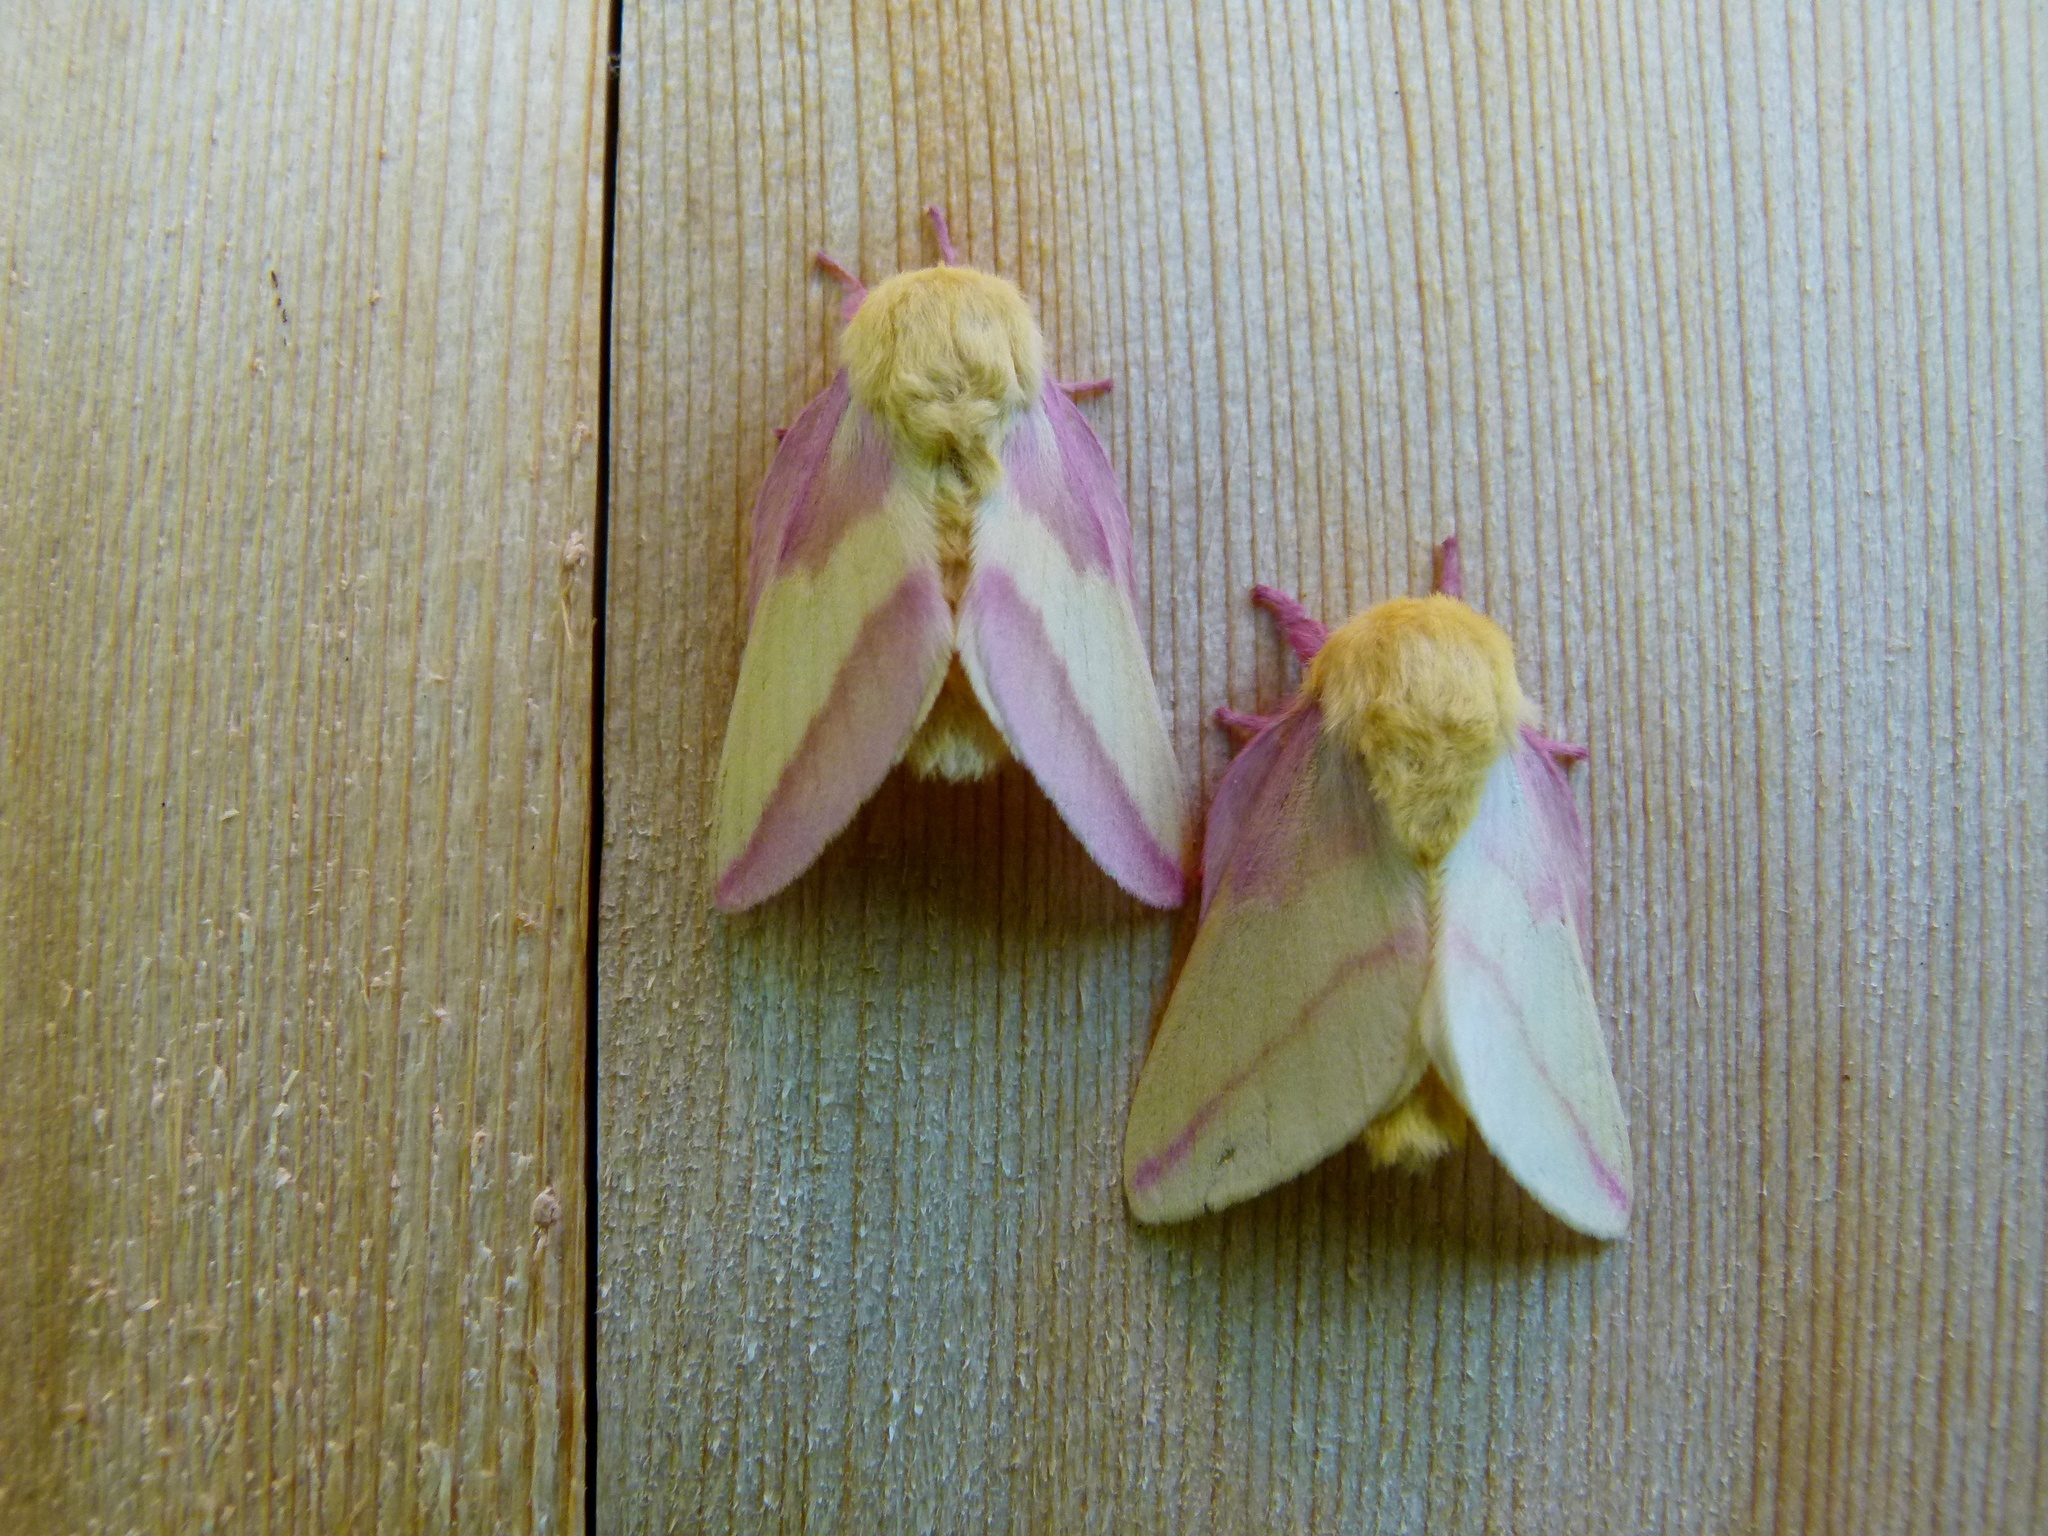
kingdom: Animalia
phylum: Arthropoda
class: Insecta
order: Lepidoptera
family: Saturniidae
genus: Dryocampa
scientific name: Dryocampa rubicunda
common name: Rosy maple moth
